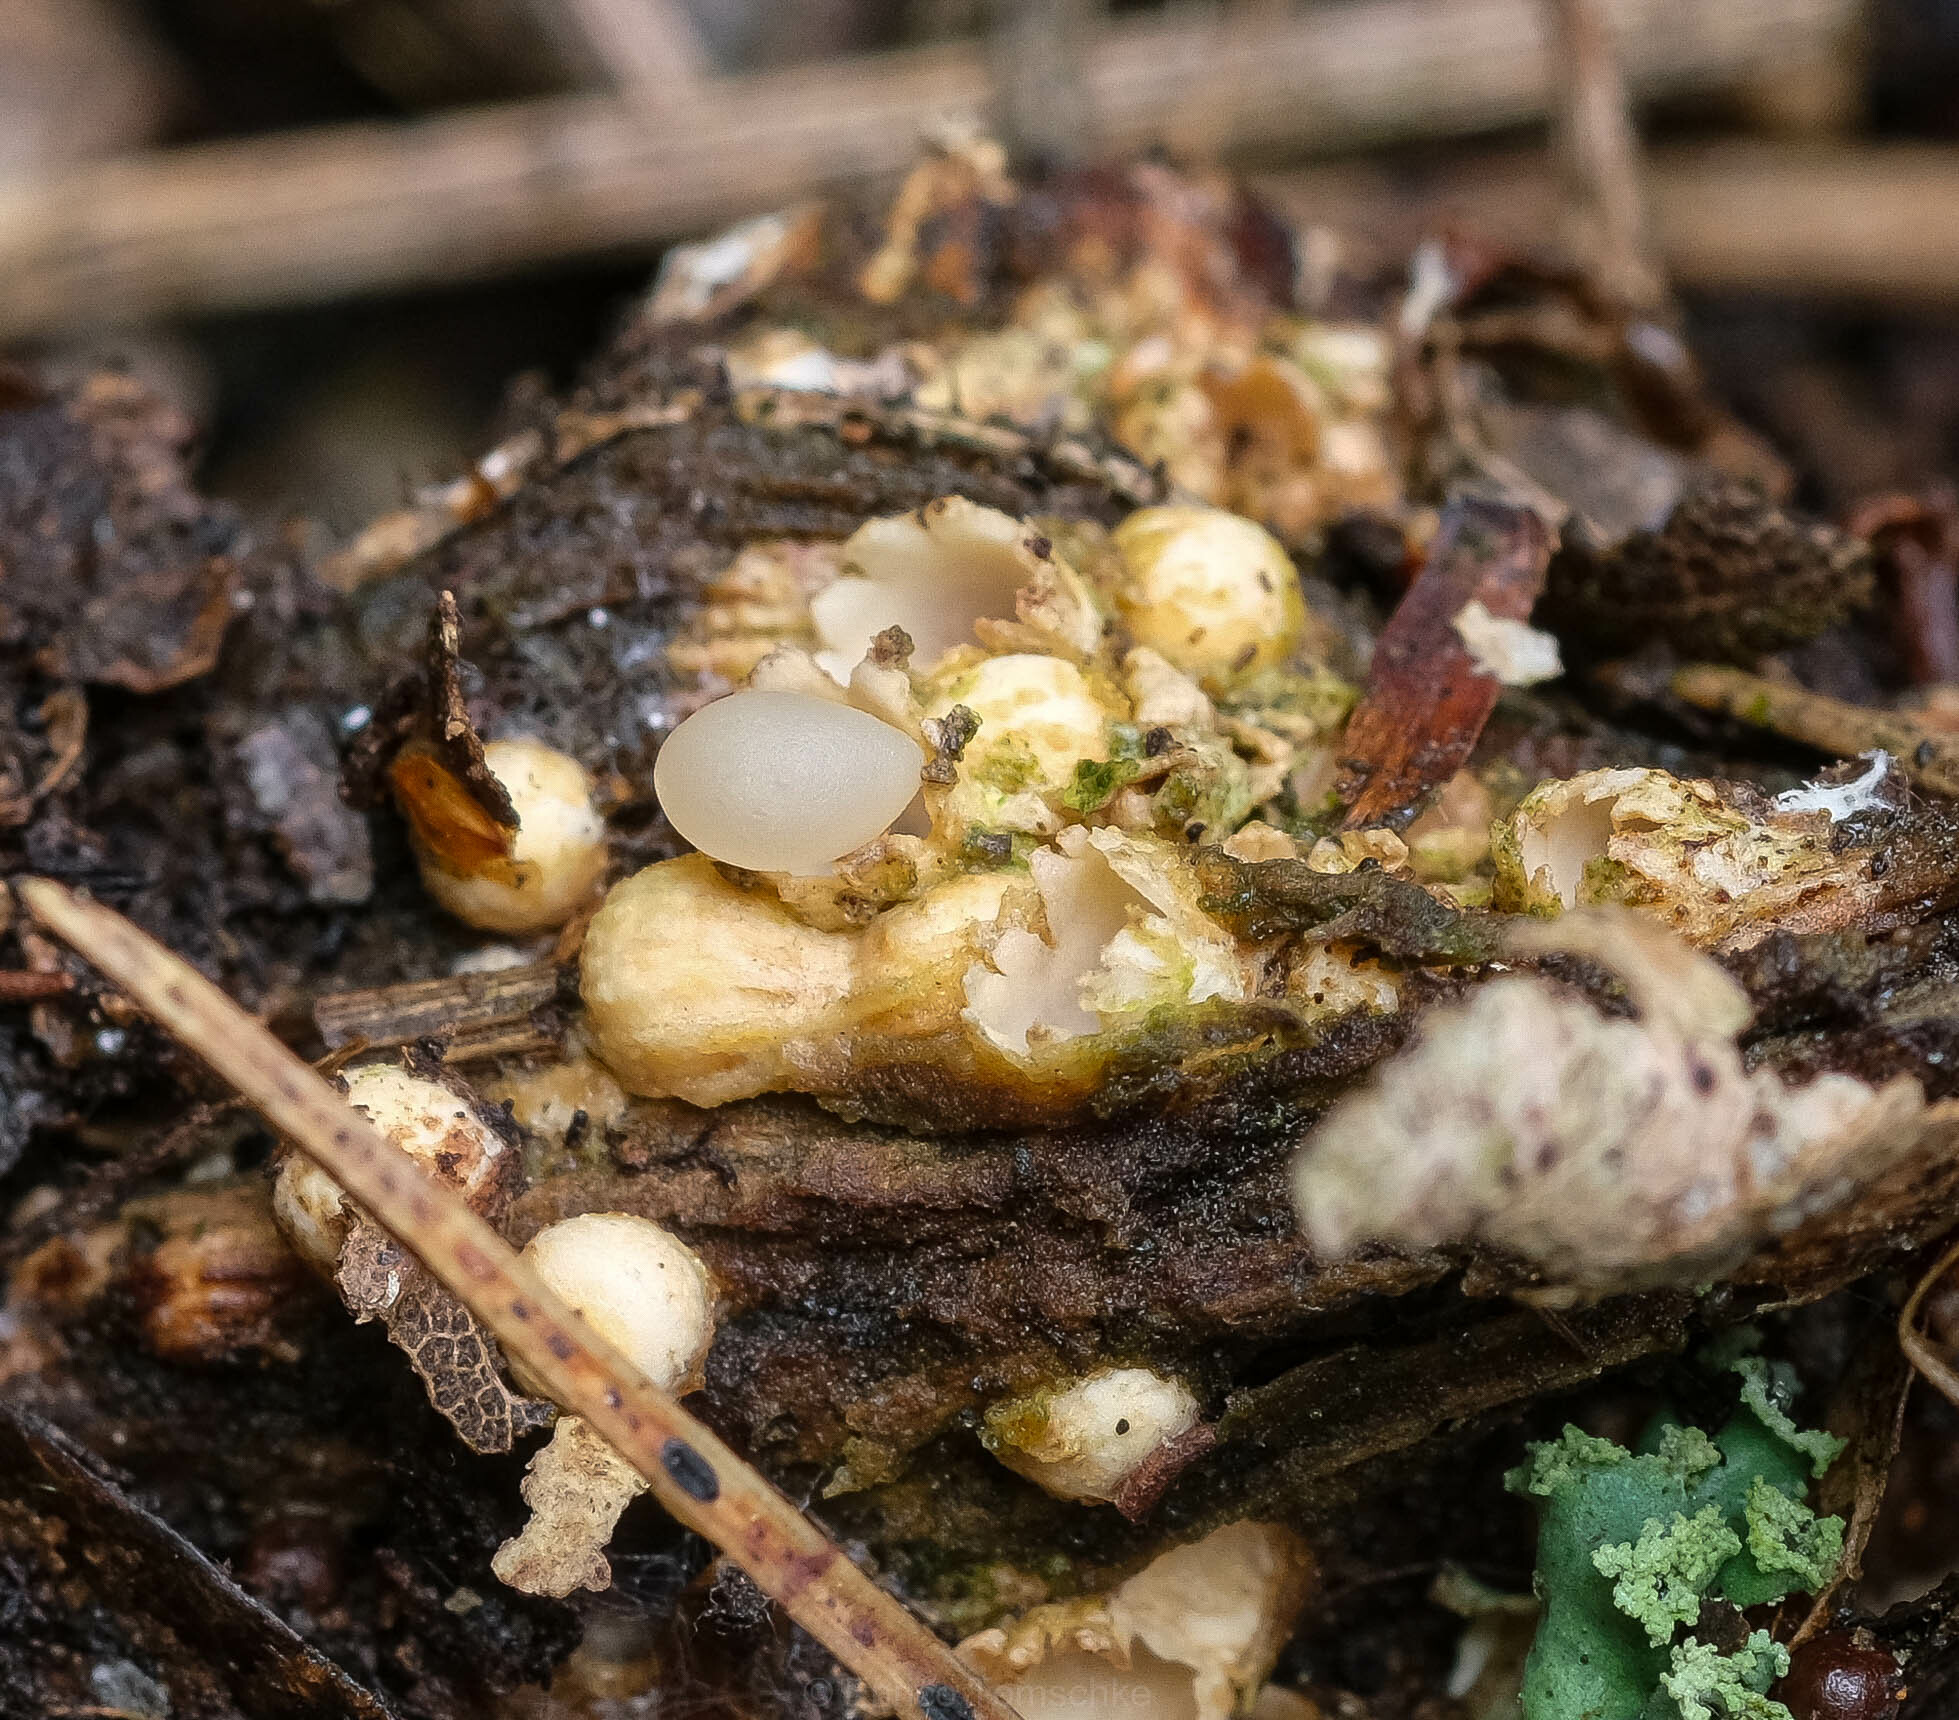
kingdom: Fungi
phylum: Basidiomycota
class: Agaricomycetes
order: Geastrales
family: Geastraceae
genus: Sphaerobolus
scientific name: Sphaerobolus stellatus
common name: Cannon fungus
